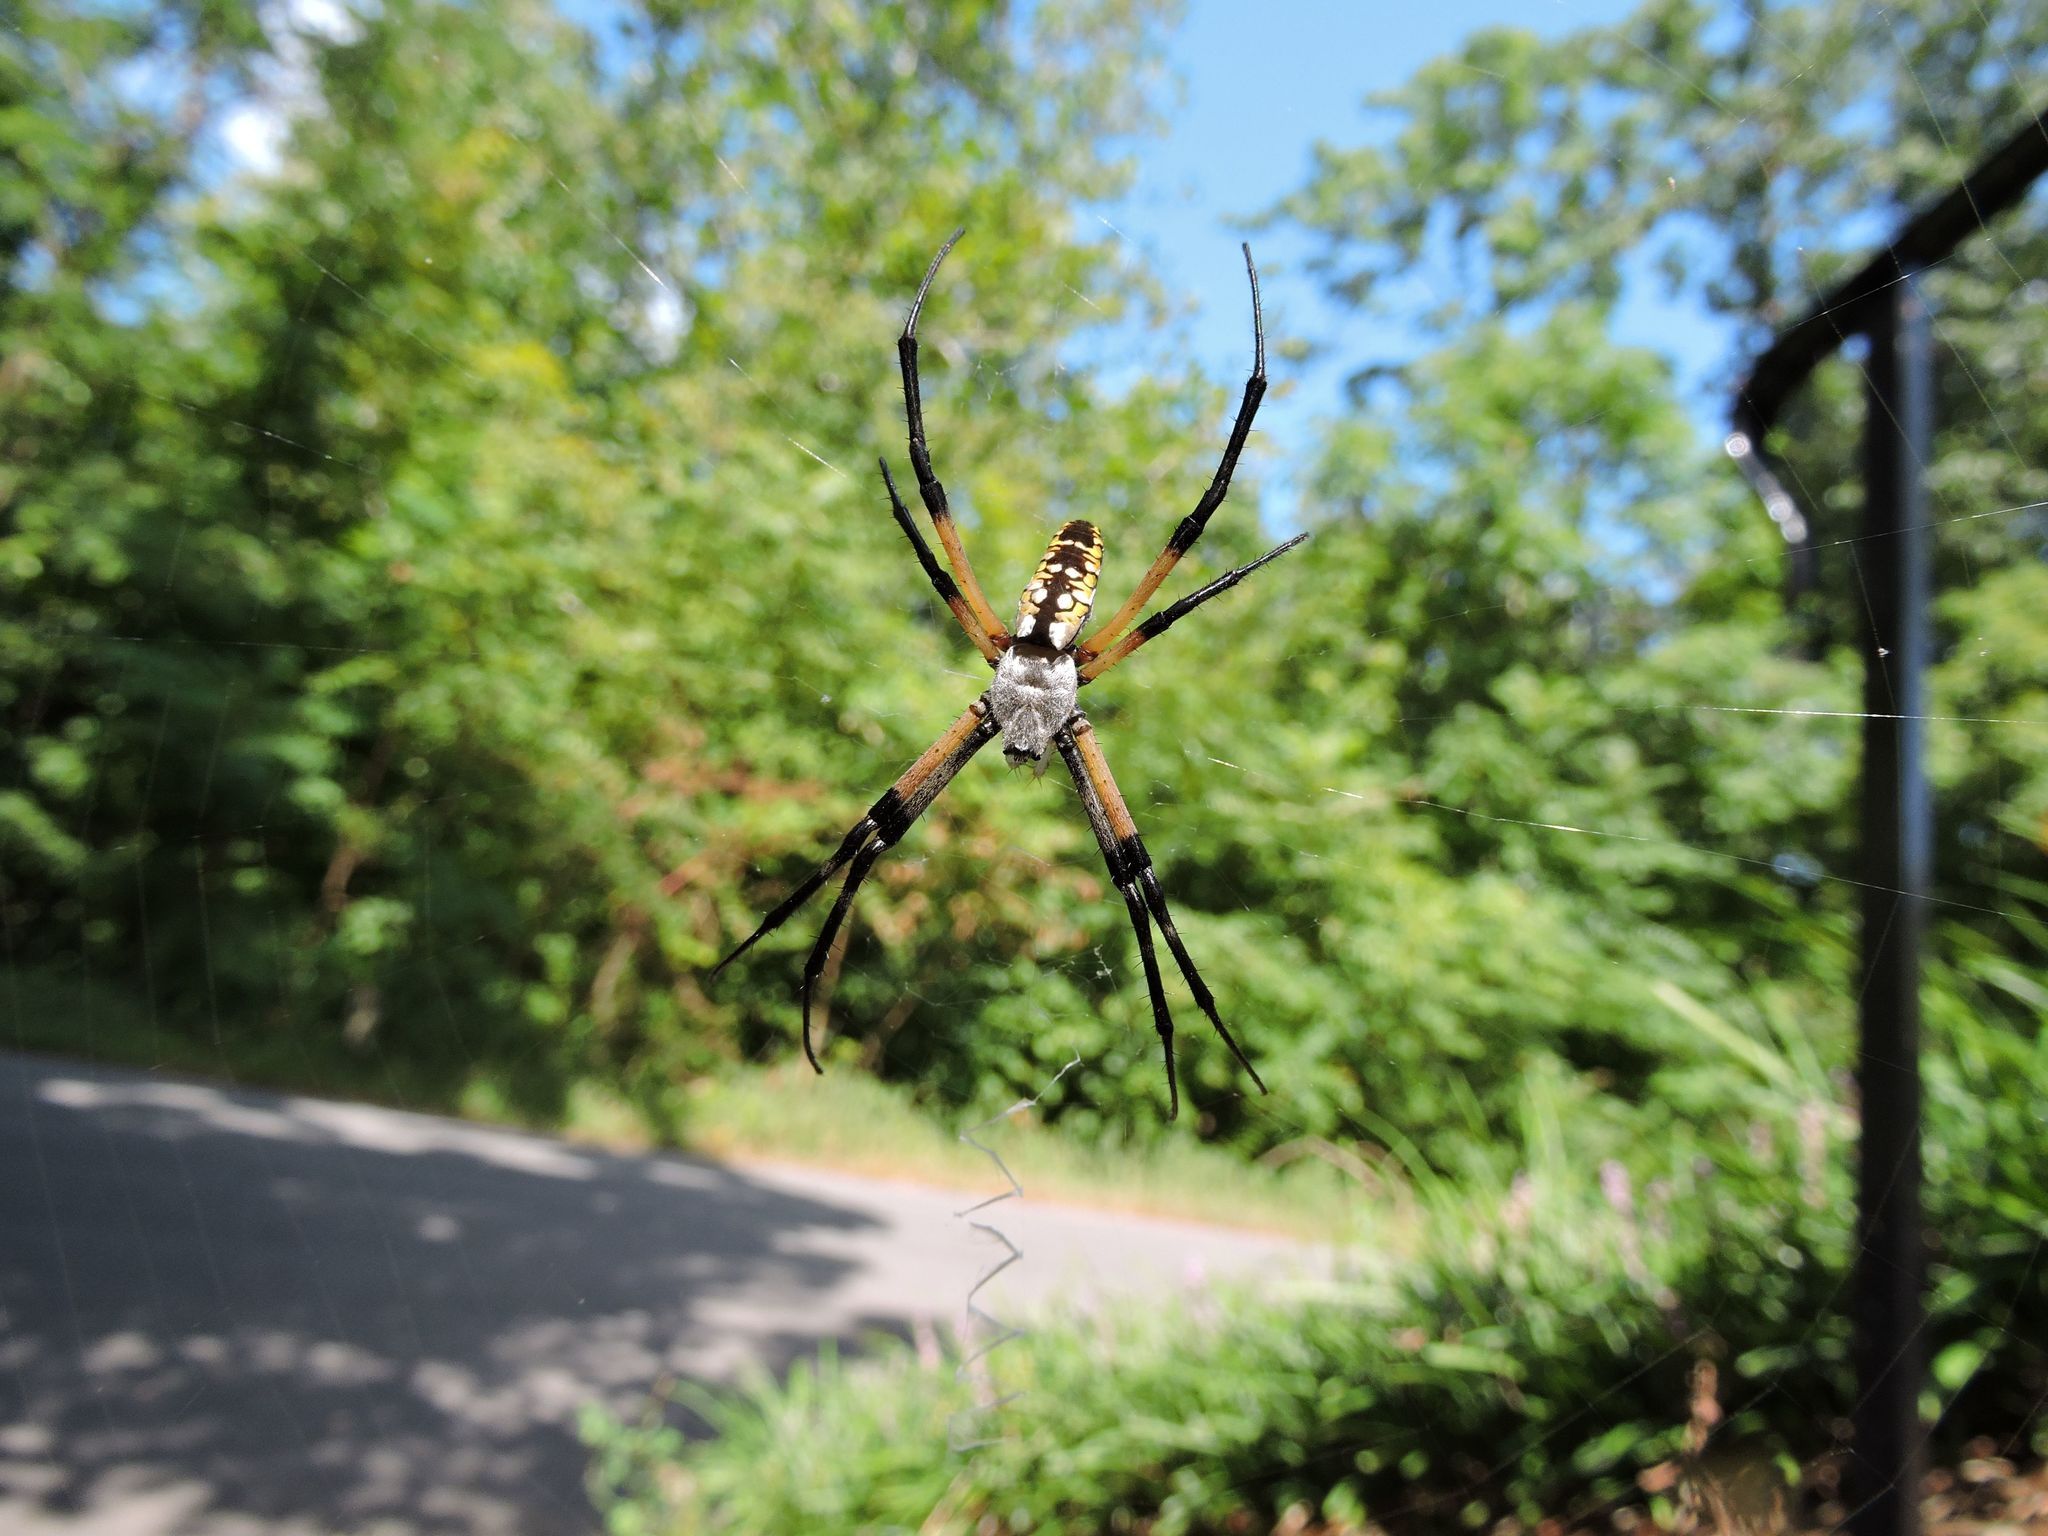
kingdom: Animalia
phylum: Arthropoda
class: Arachnida
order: Araneae
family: Araneidae
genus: Argiope
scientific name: Argiope aurantia
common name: Orb weavers
